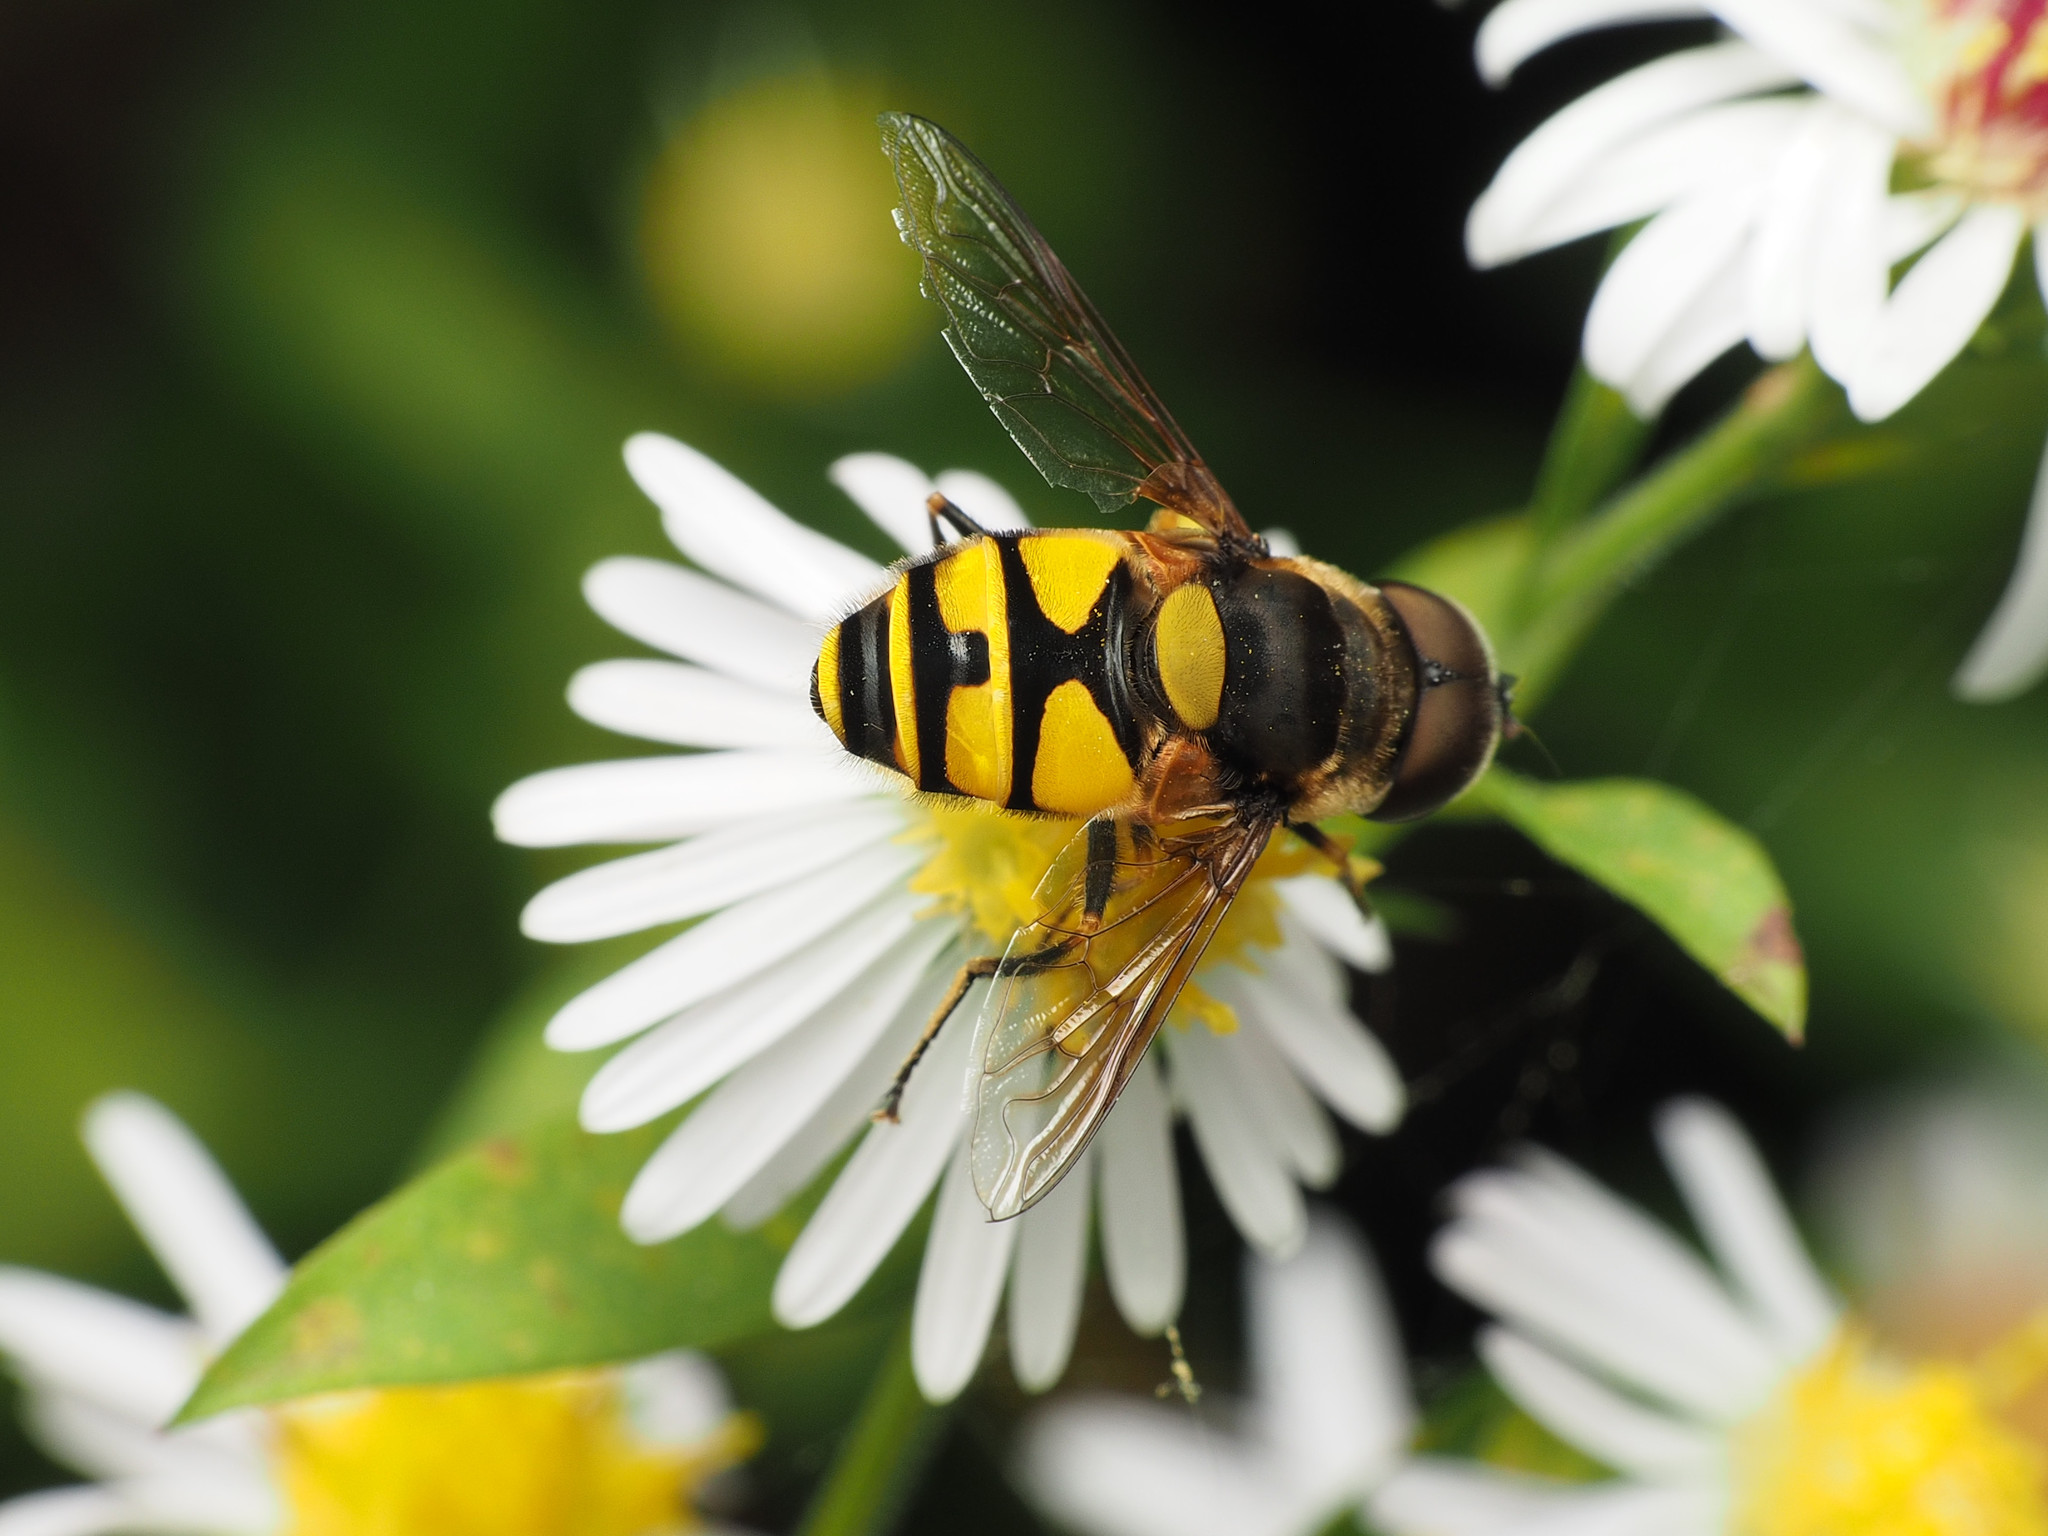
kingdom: Animalia
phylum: Arthropoda
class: Insecta
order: Diptera
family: Syrphidae
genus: Eristalis
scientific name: Eristalis transversa
